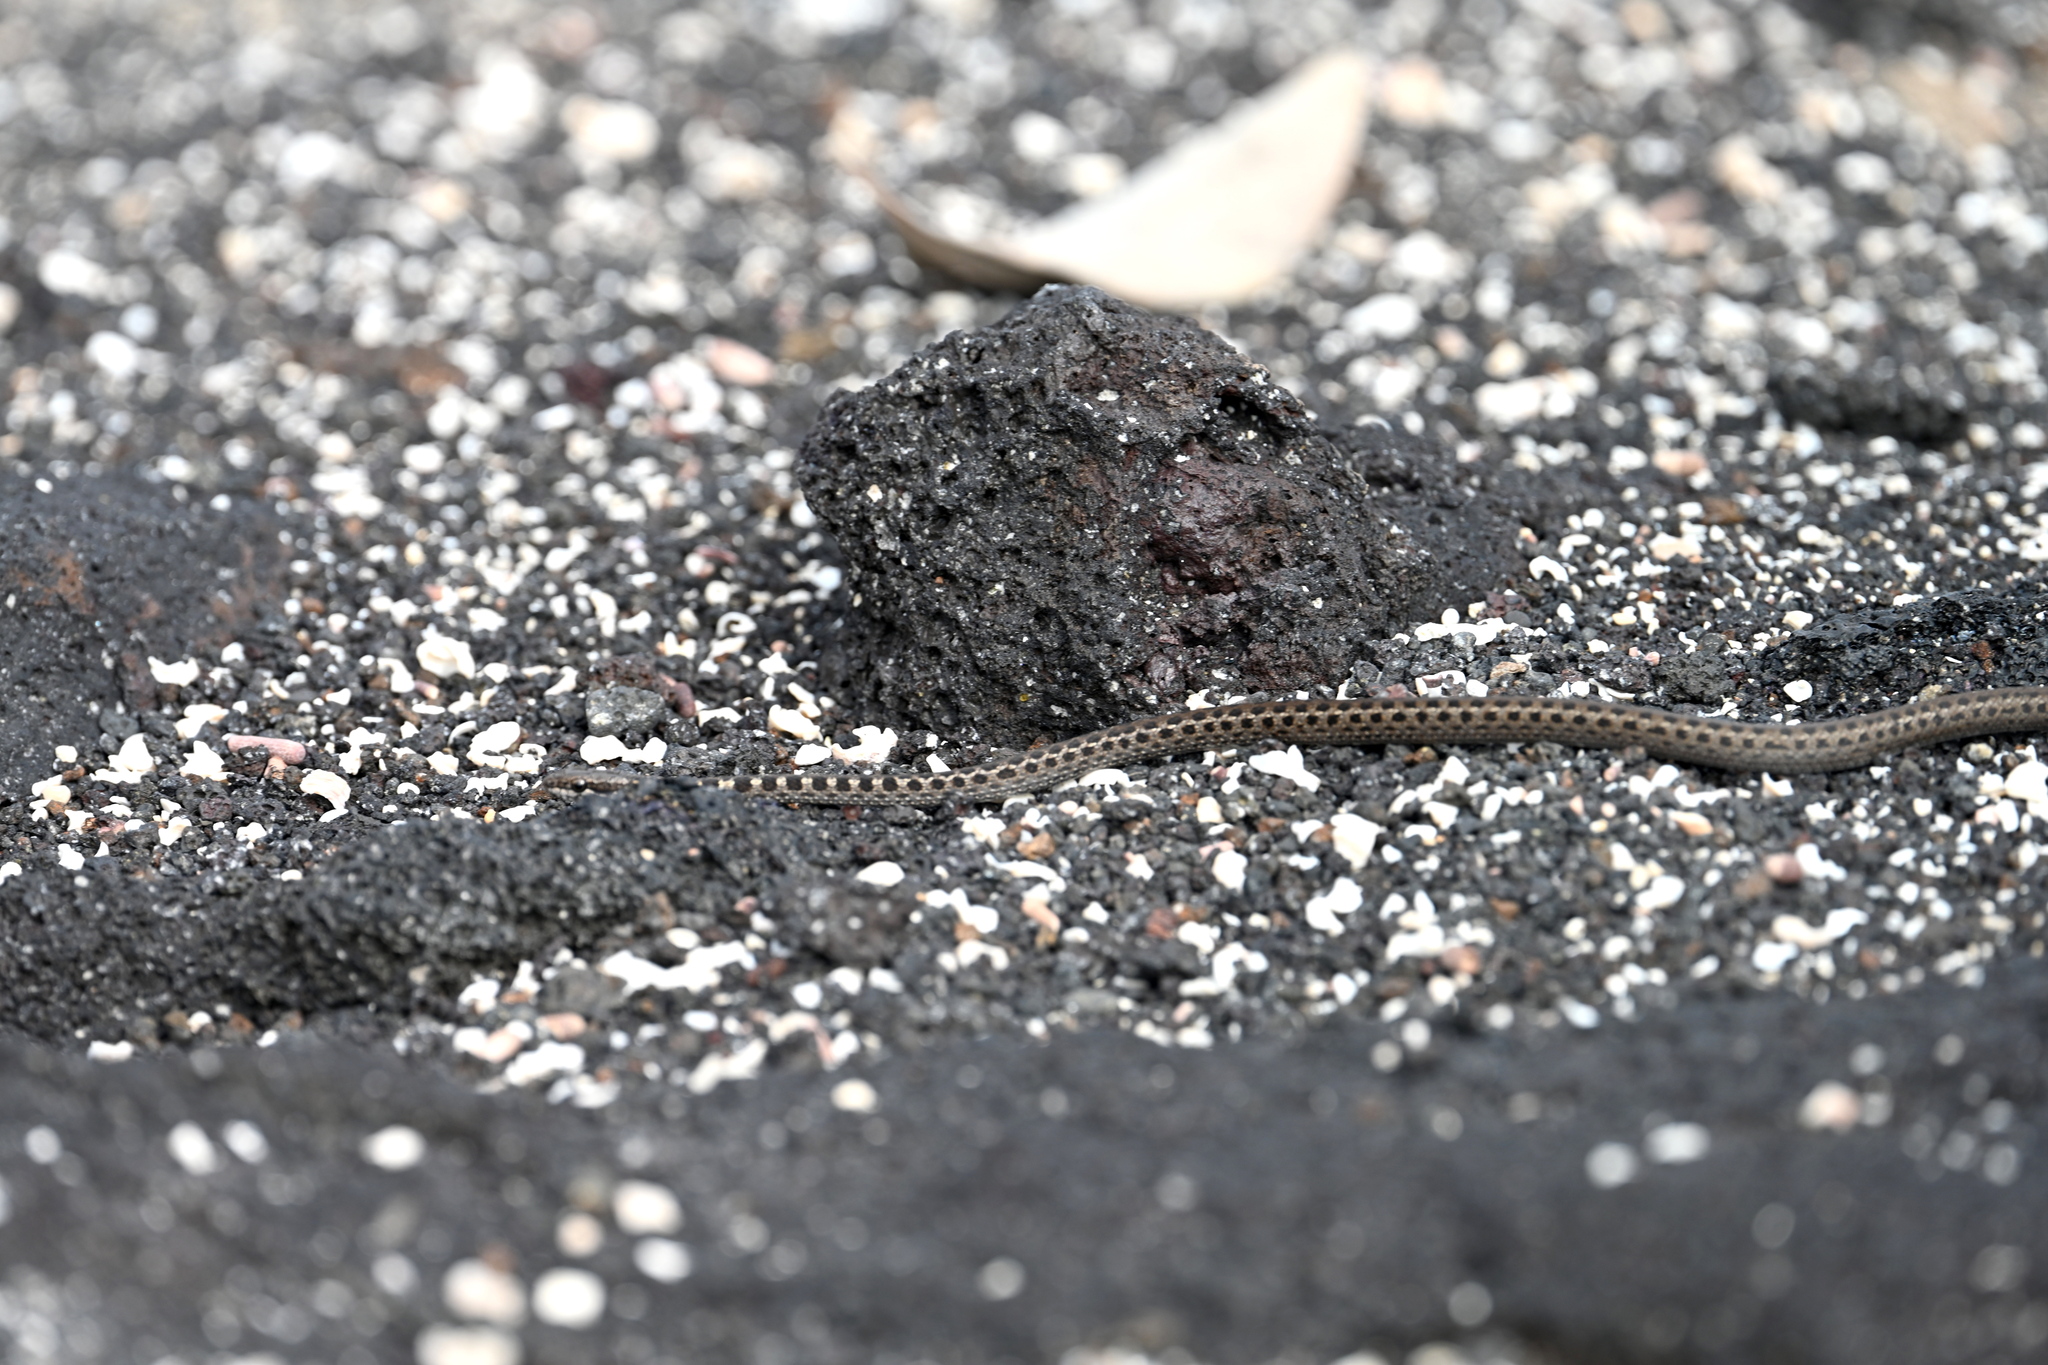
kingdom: Animalia
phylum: Chordata
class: Squamata
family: Colubridae
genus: Pseudalsophis
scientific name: Pseudalsophis occidentalis
